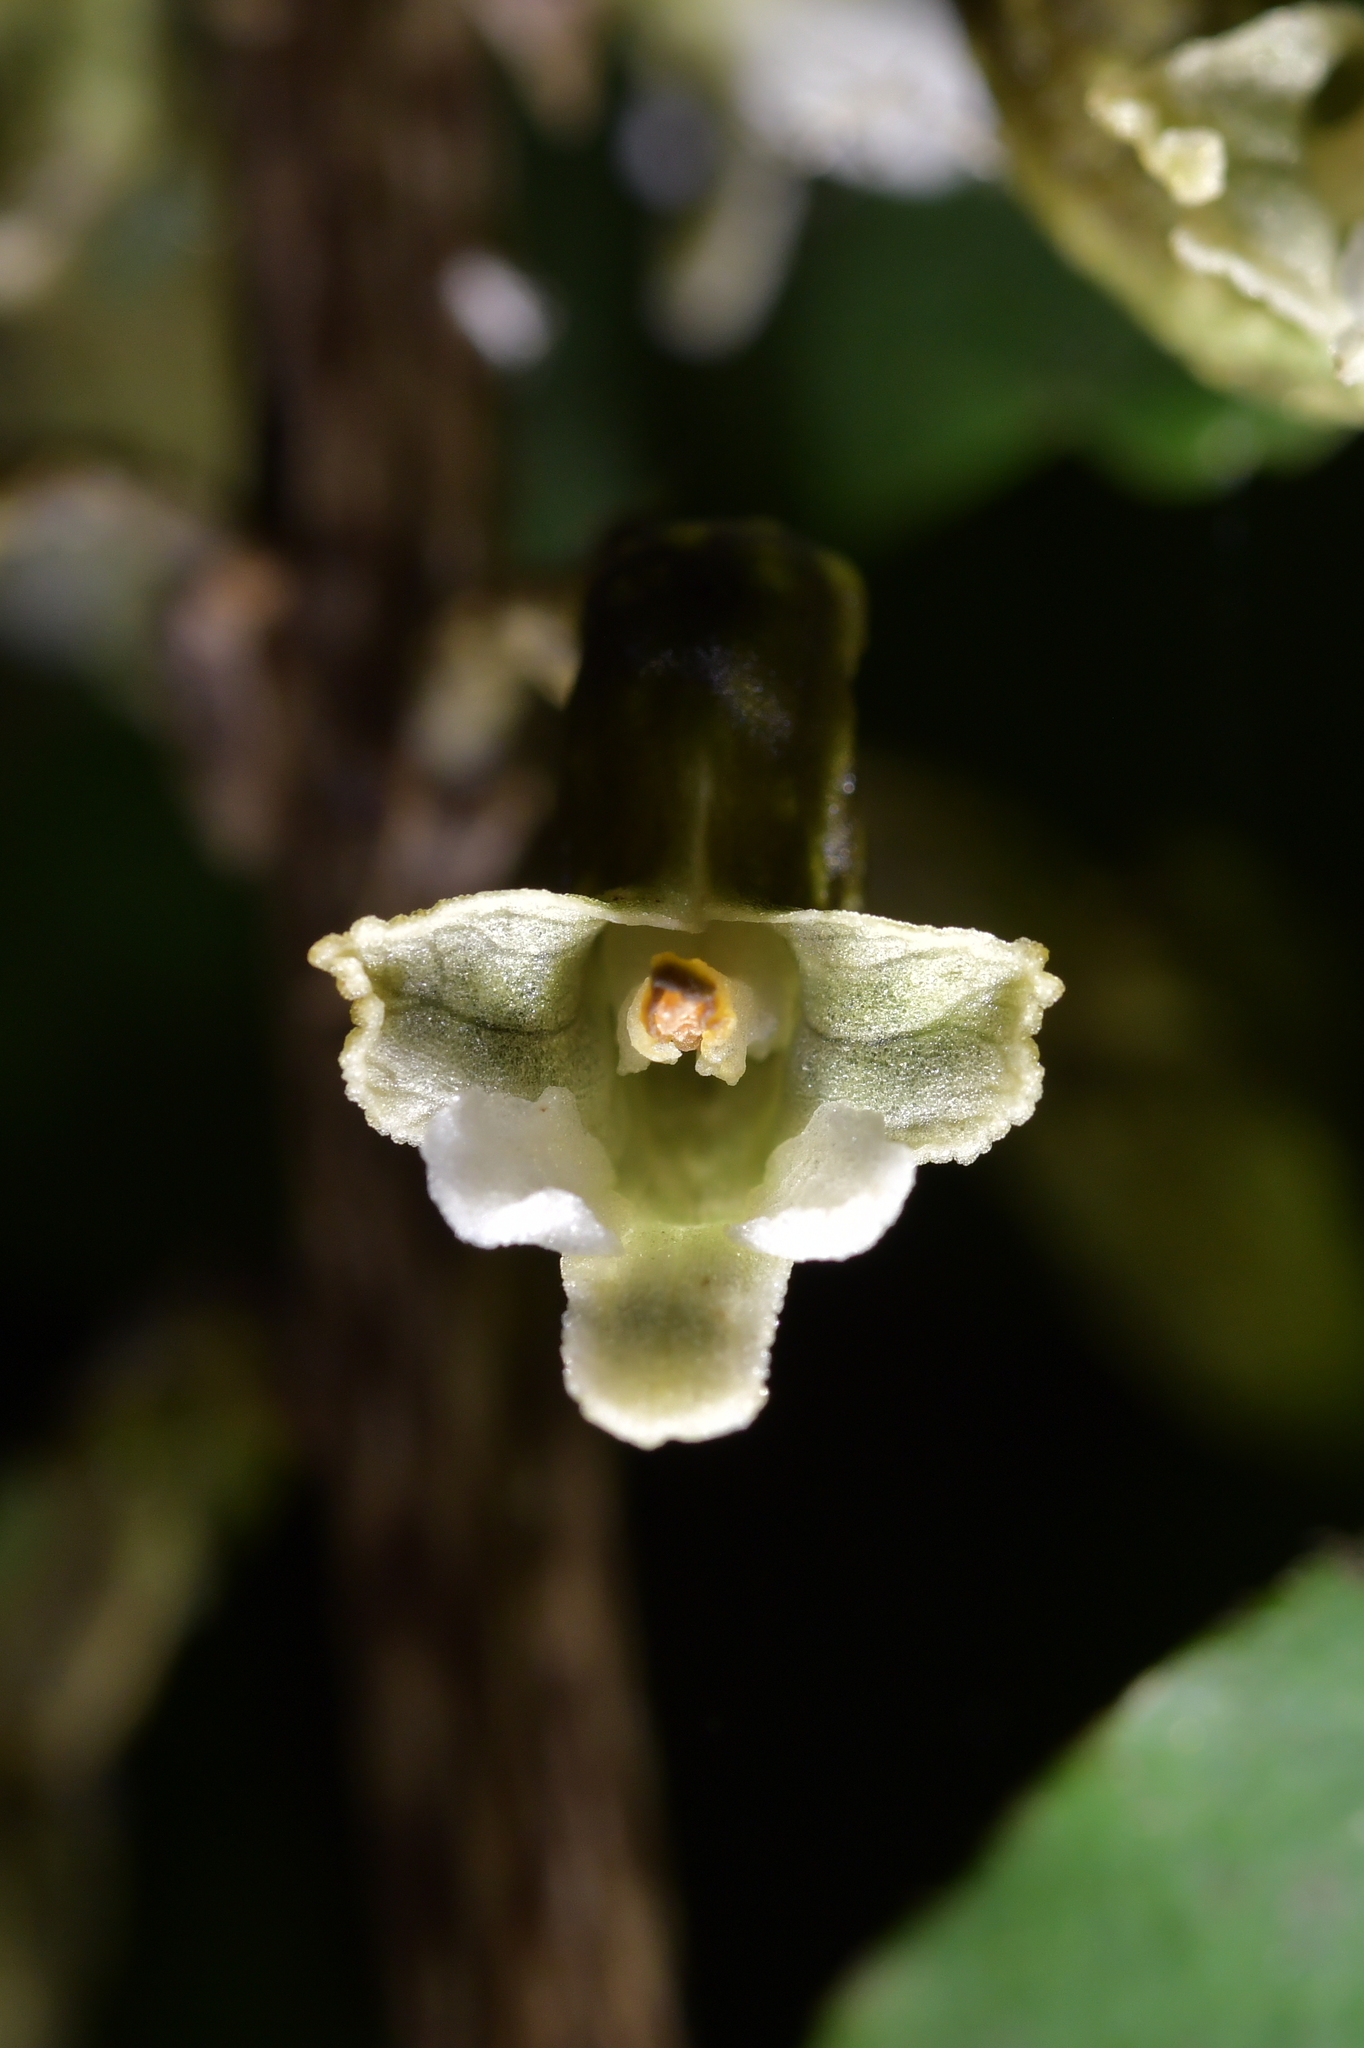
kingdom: Plantae
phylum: Tracheophyta
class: Liliopsida
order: Asparagales
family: Orchidaceae
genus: Gastrodia
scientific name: Gastrodia cunninghamii
